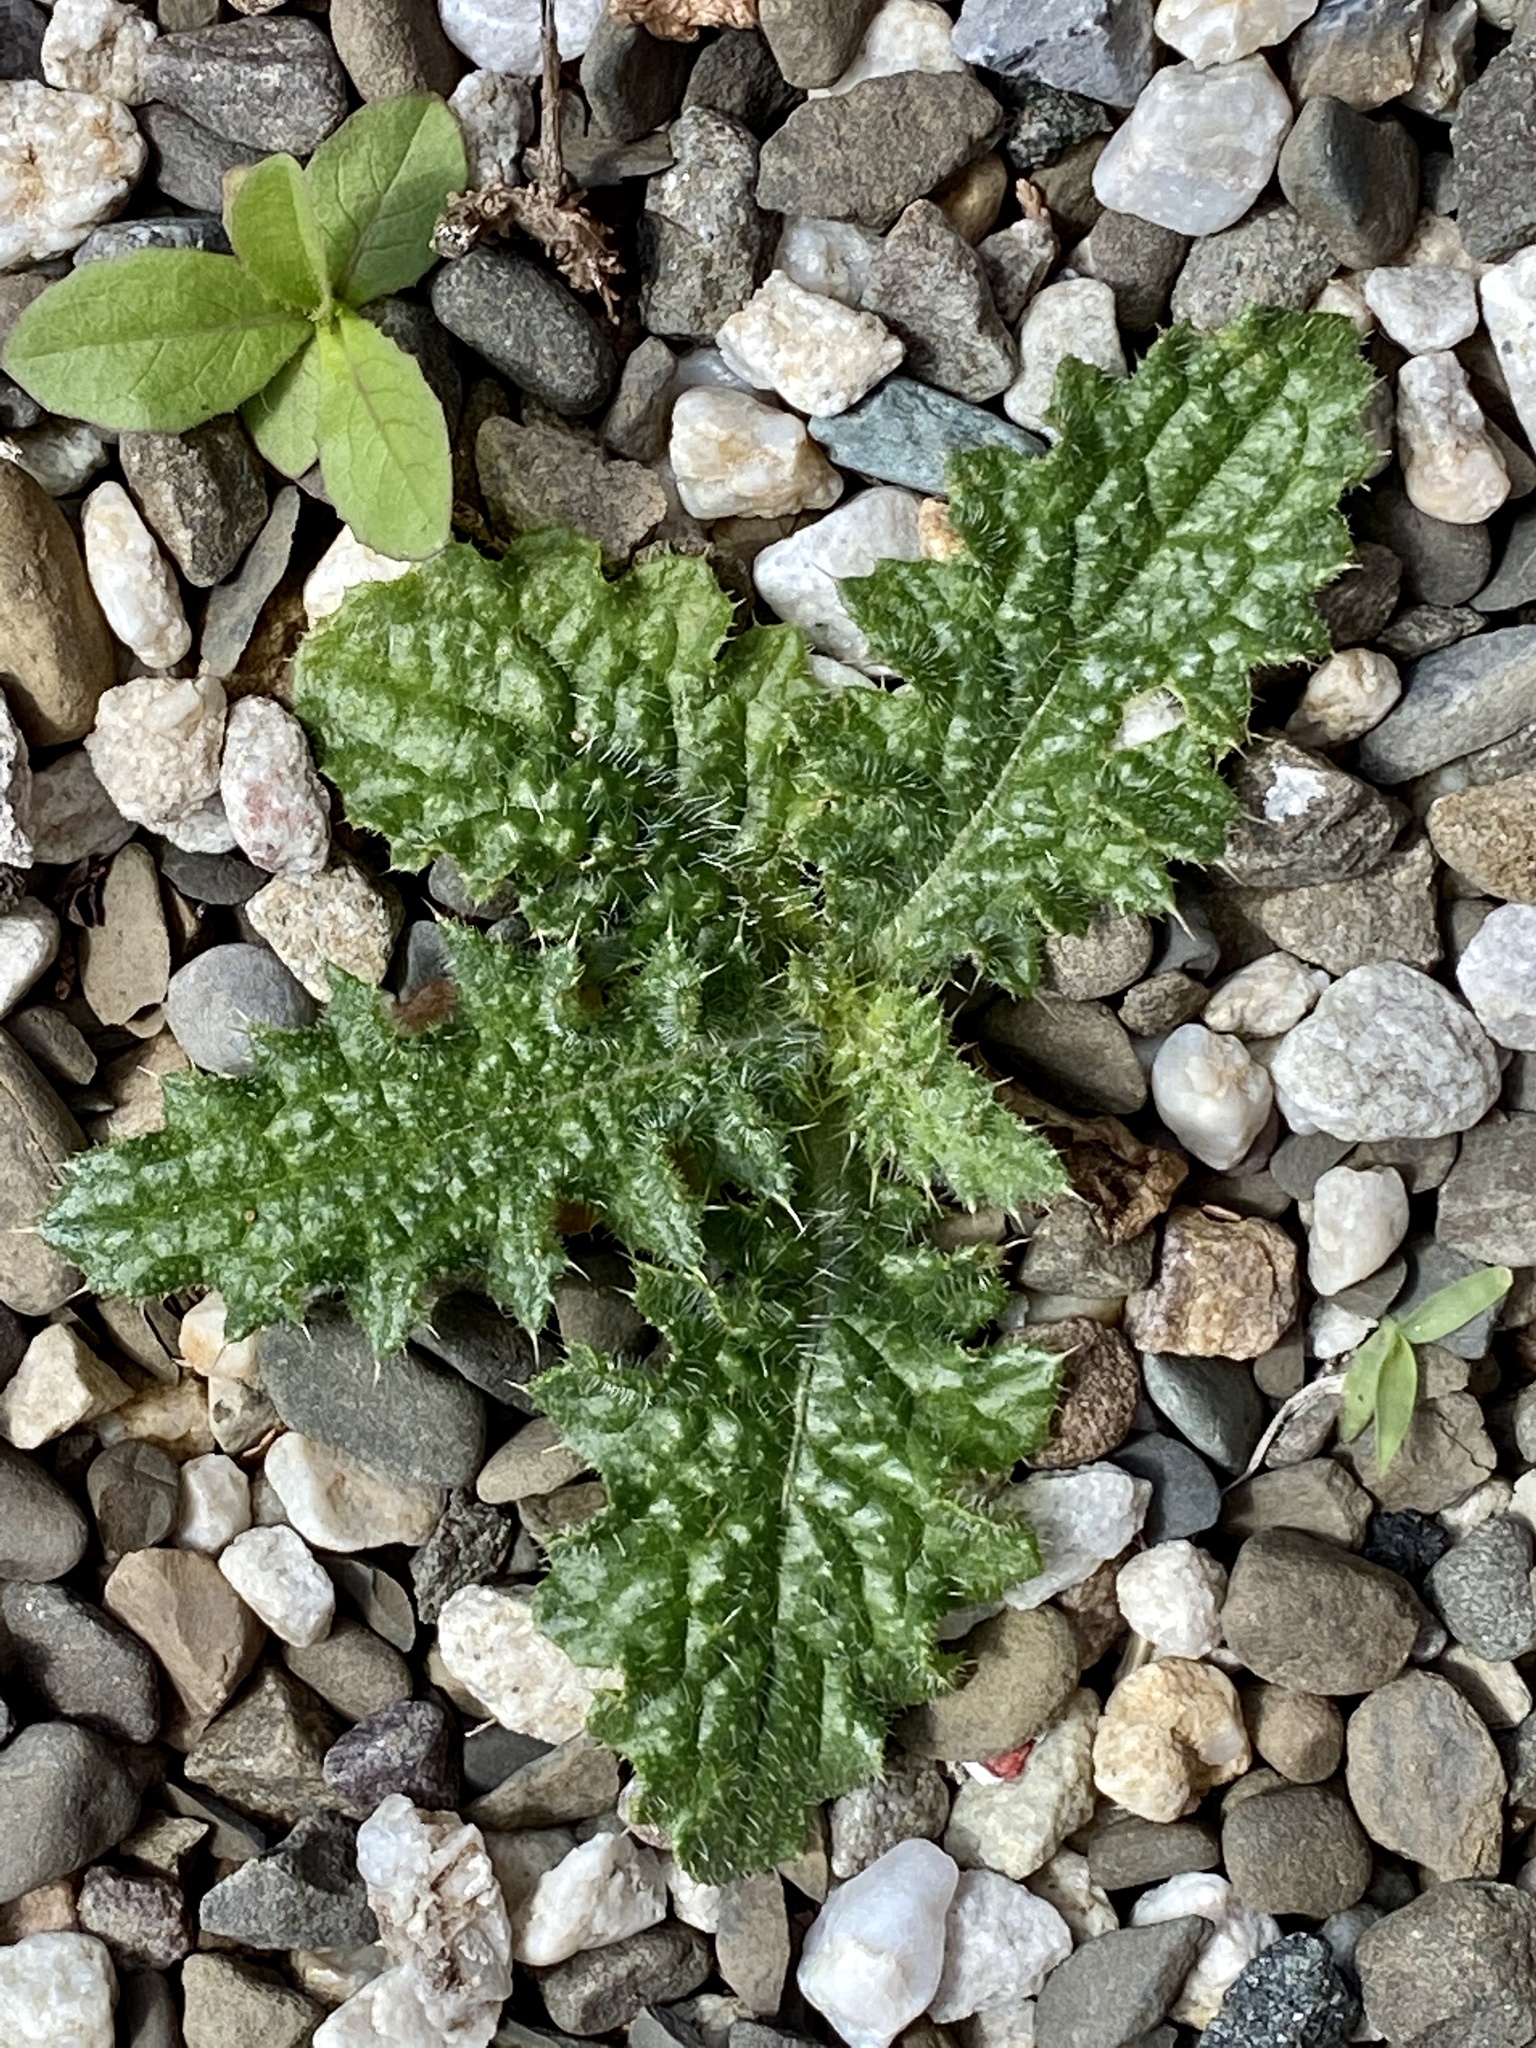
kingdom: Plantae
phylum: Tracheophyta
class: Magnoliopsida
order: Asterales
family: Asteraceae
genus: Cirsium
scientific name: Cirsium vulgare
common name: Bull thistle
